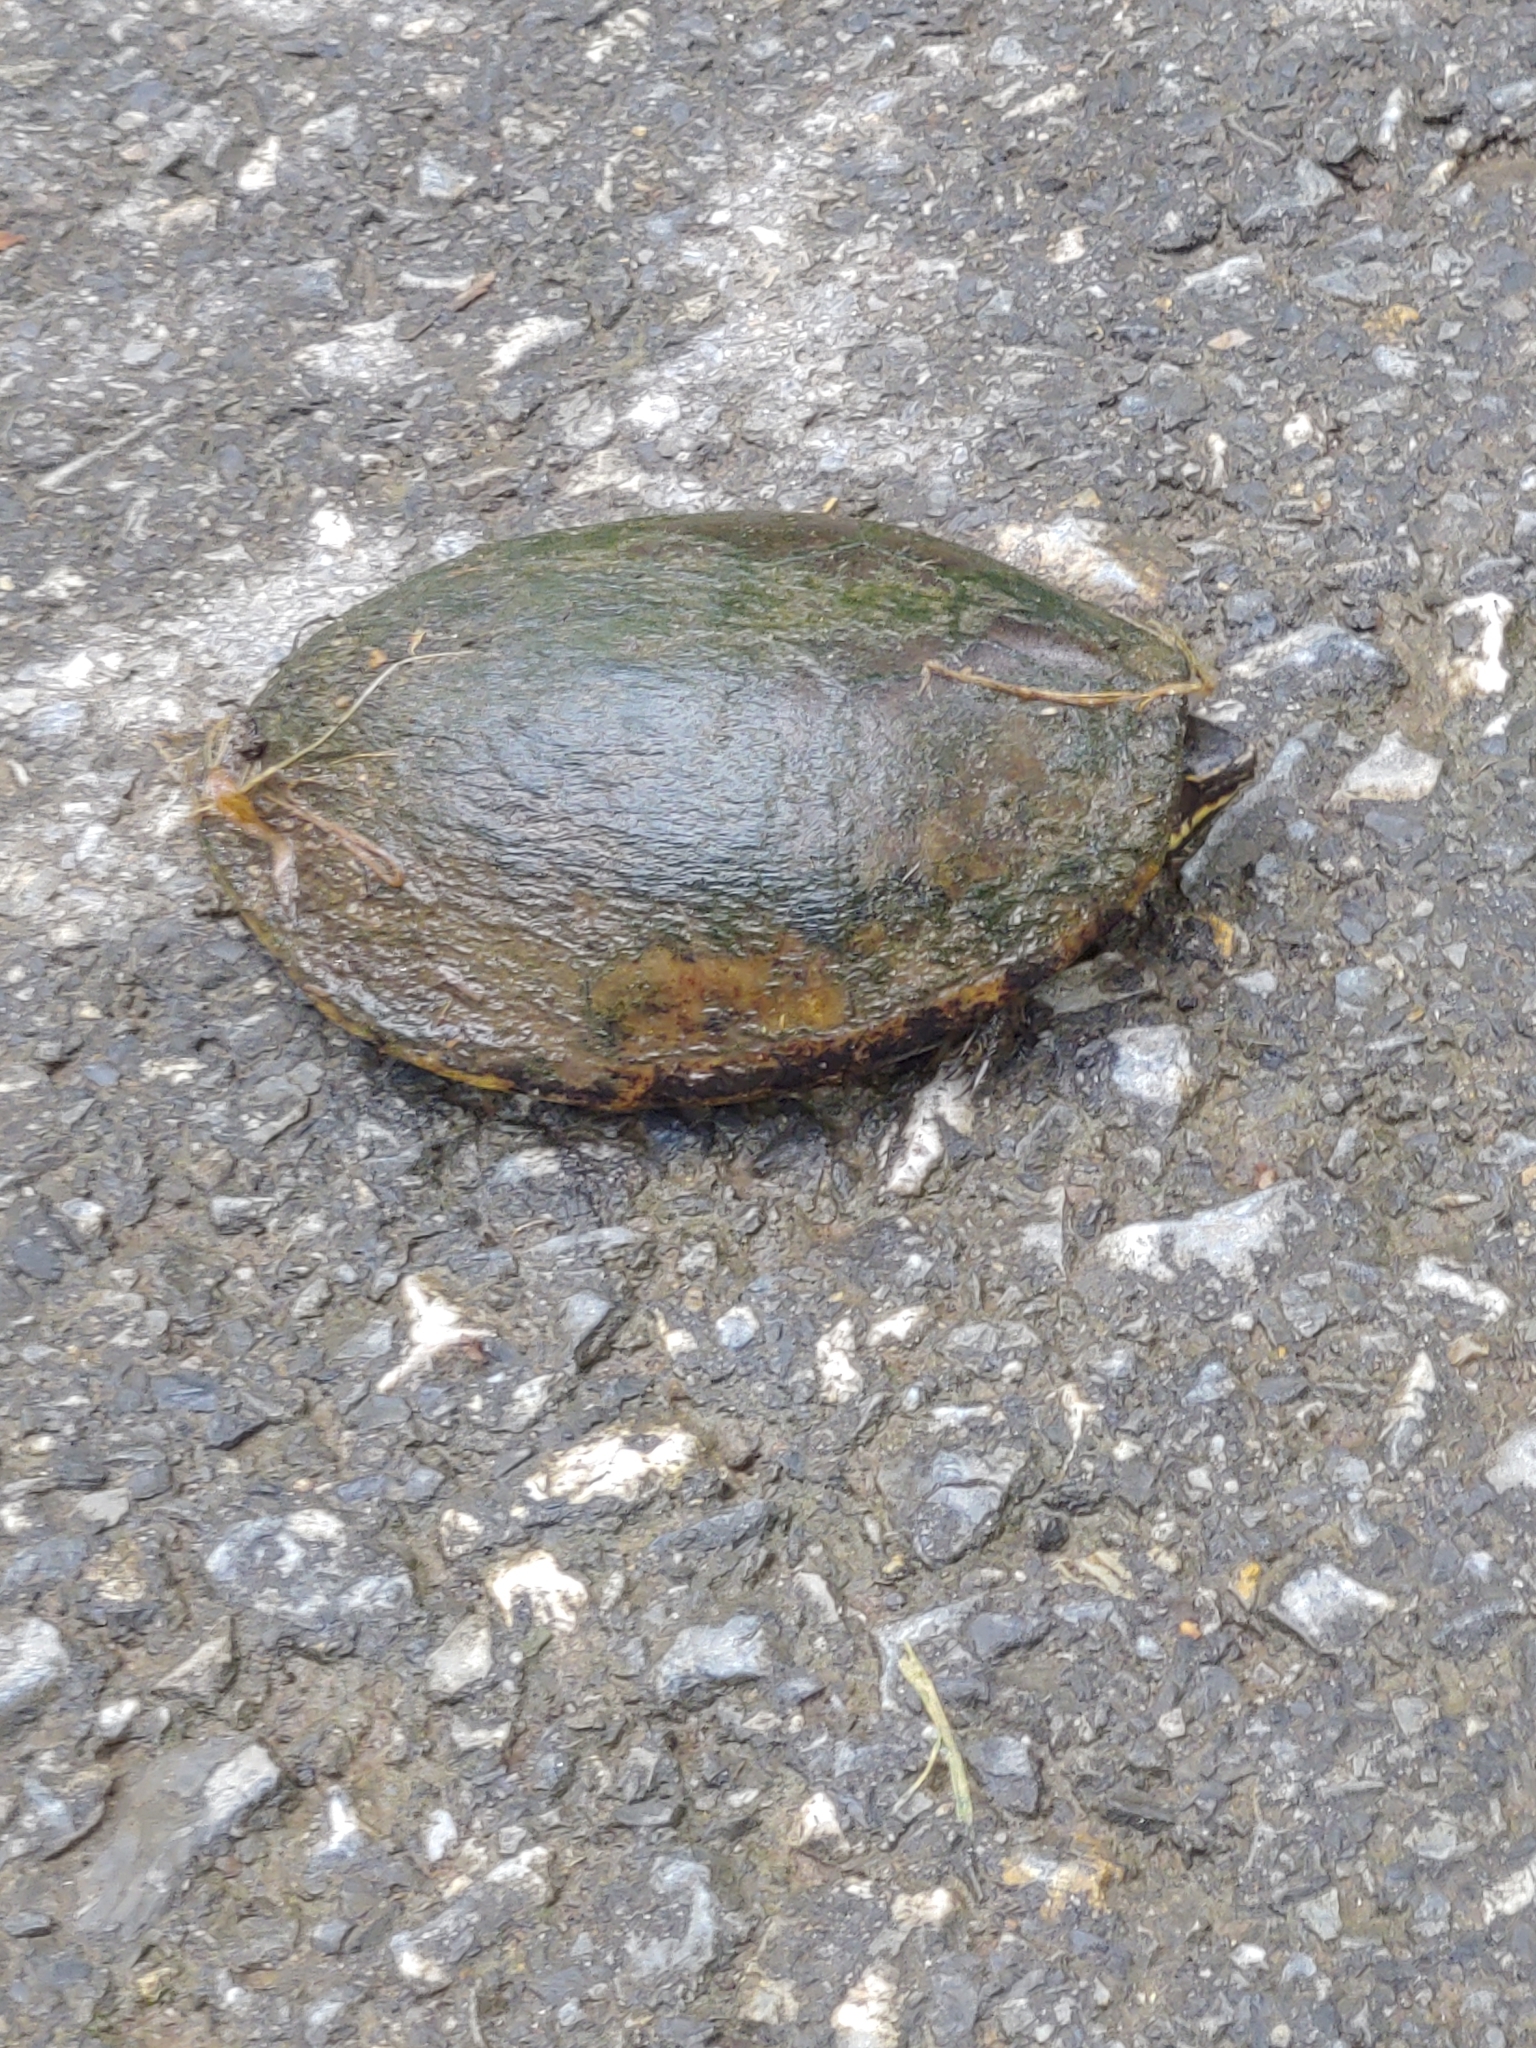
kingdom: Animalia
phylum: Chordata
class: Testudines
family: Kinosternidae
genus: Sternotherus
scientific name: Sternotherus odoratus
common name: Common musk turtle
